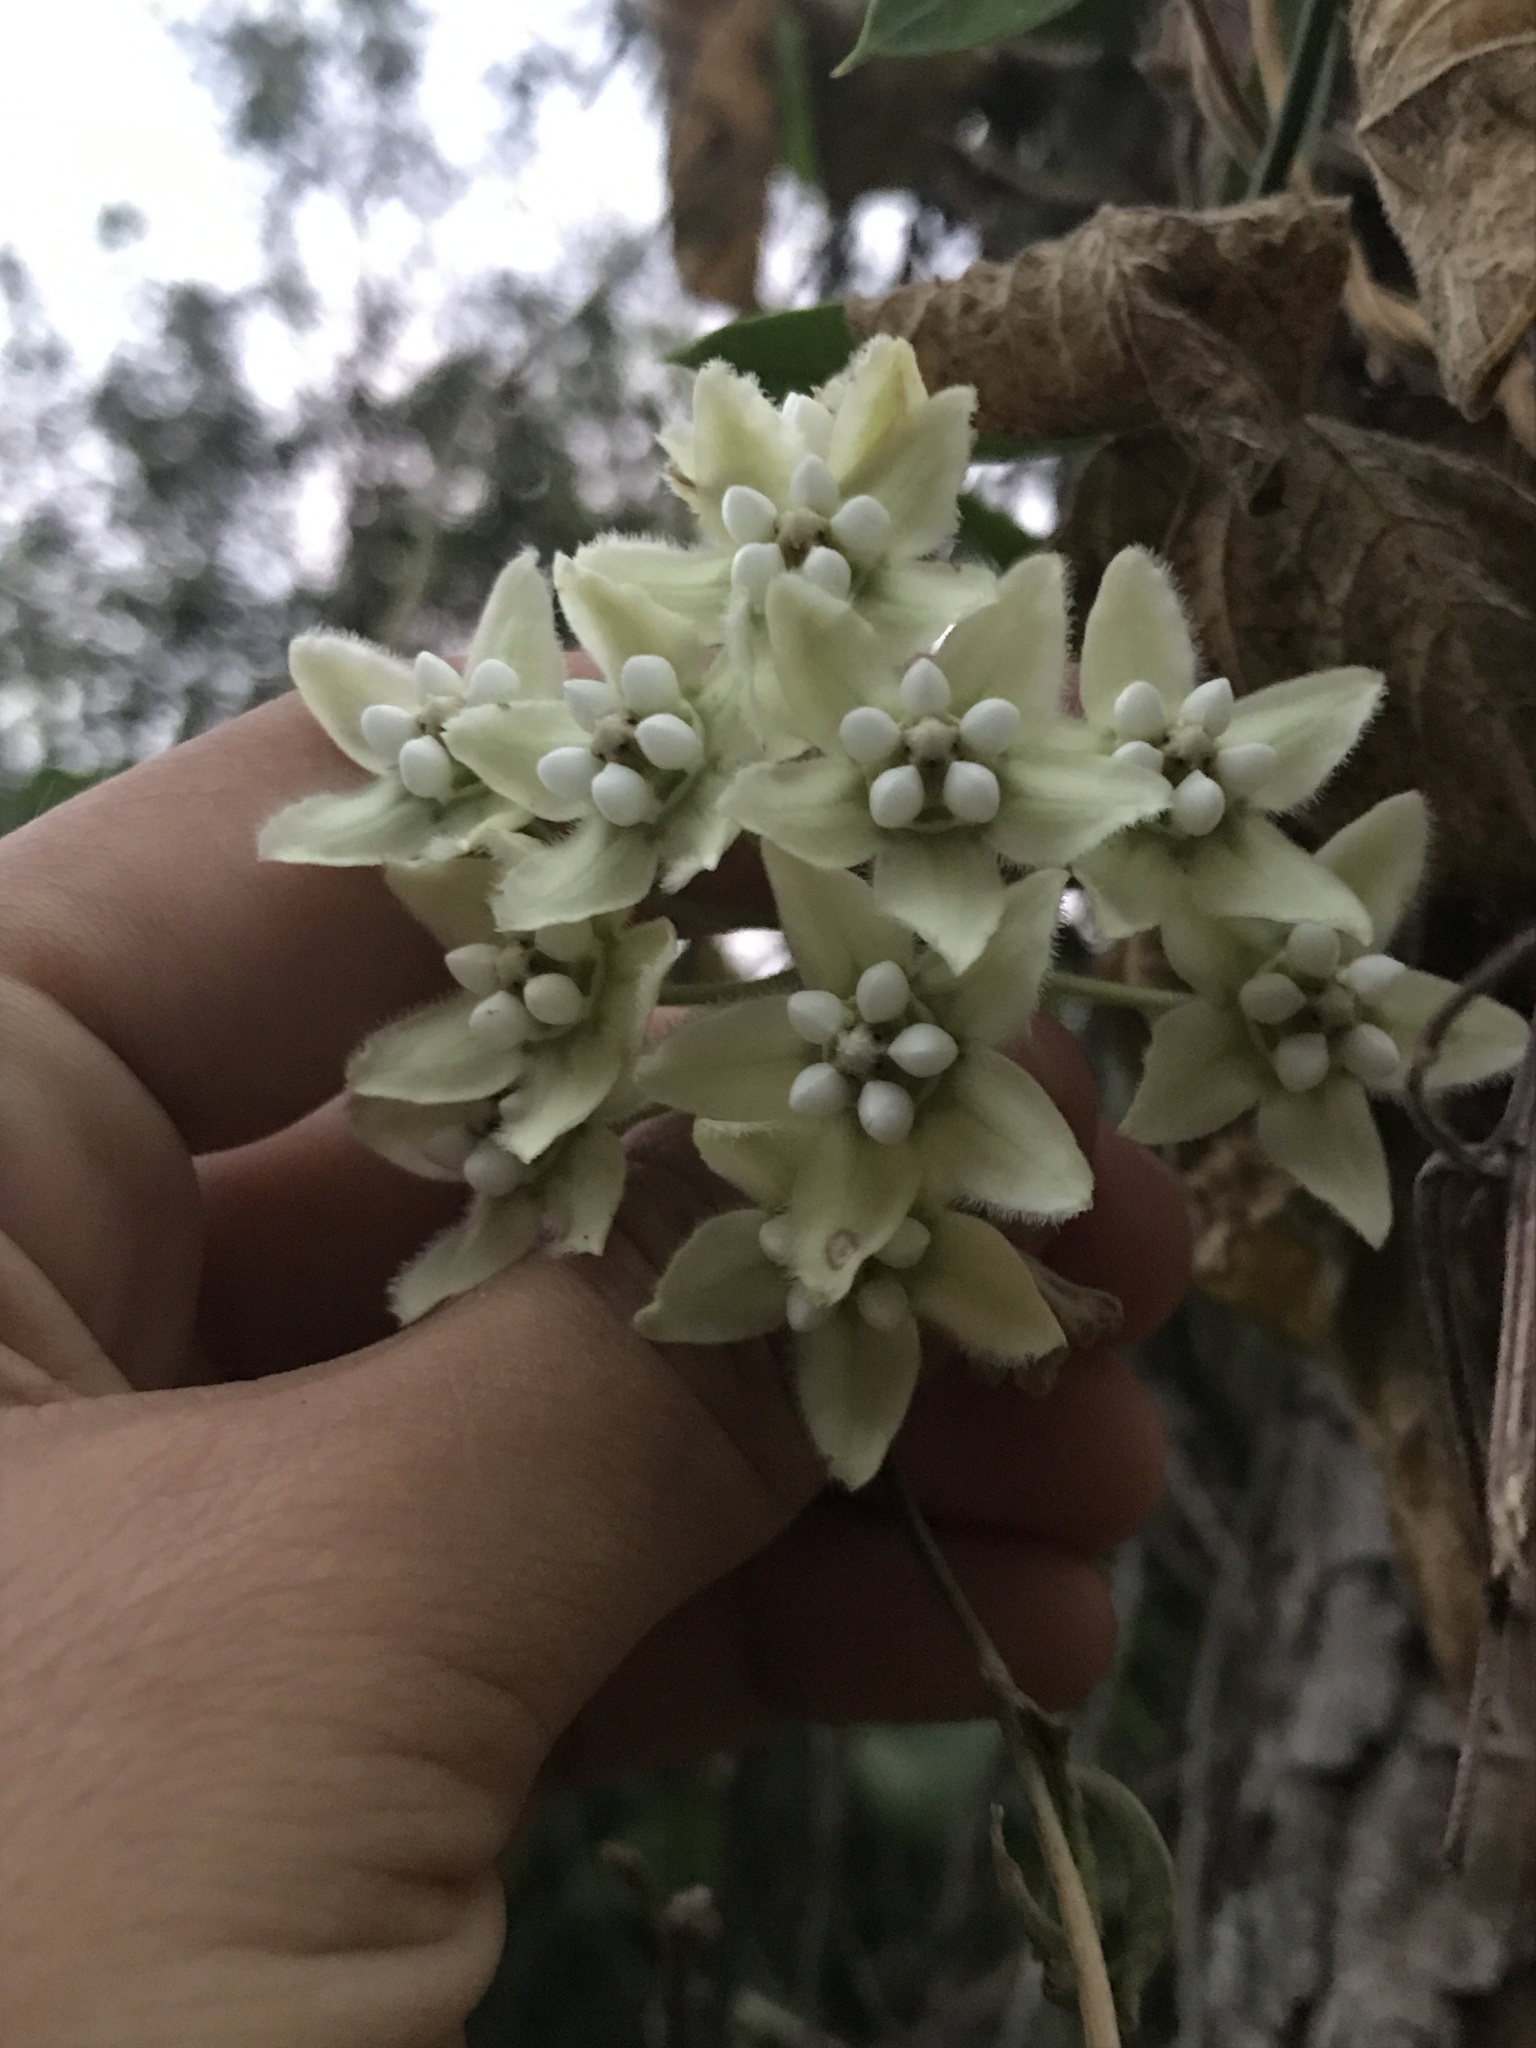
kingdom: Plantae
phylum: Tracheophyta
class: Magnoliopsida
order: Gentianales
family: Apocynaceae
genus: Funastrum
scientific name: Funastrum clausum
